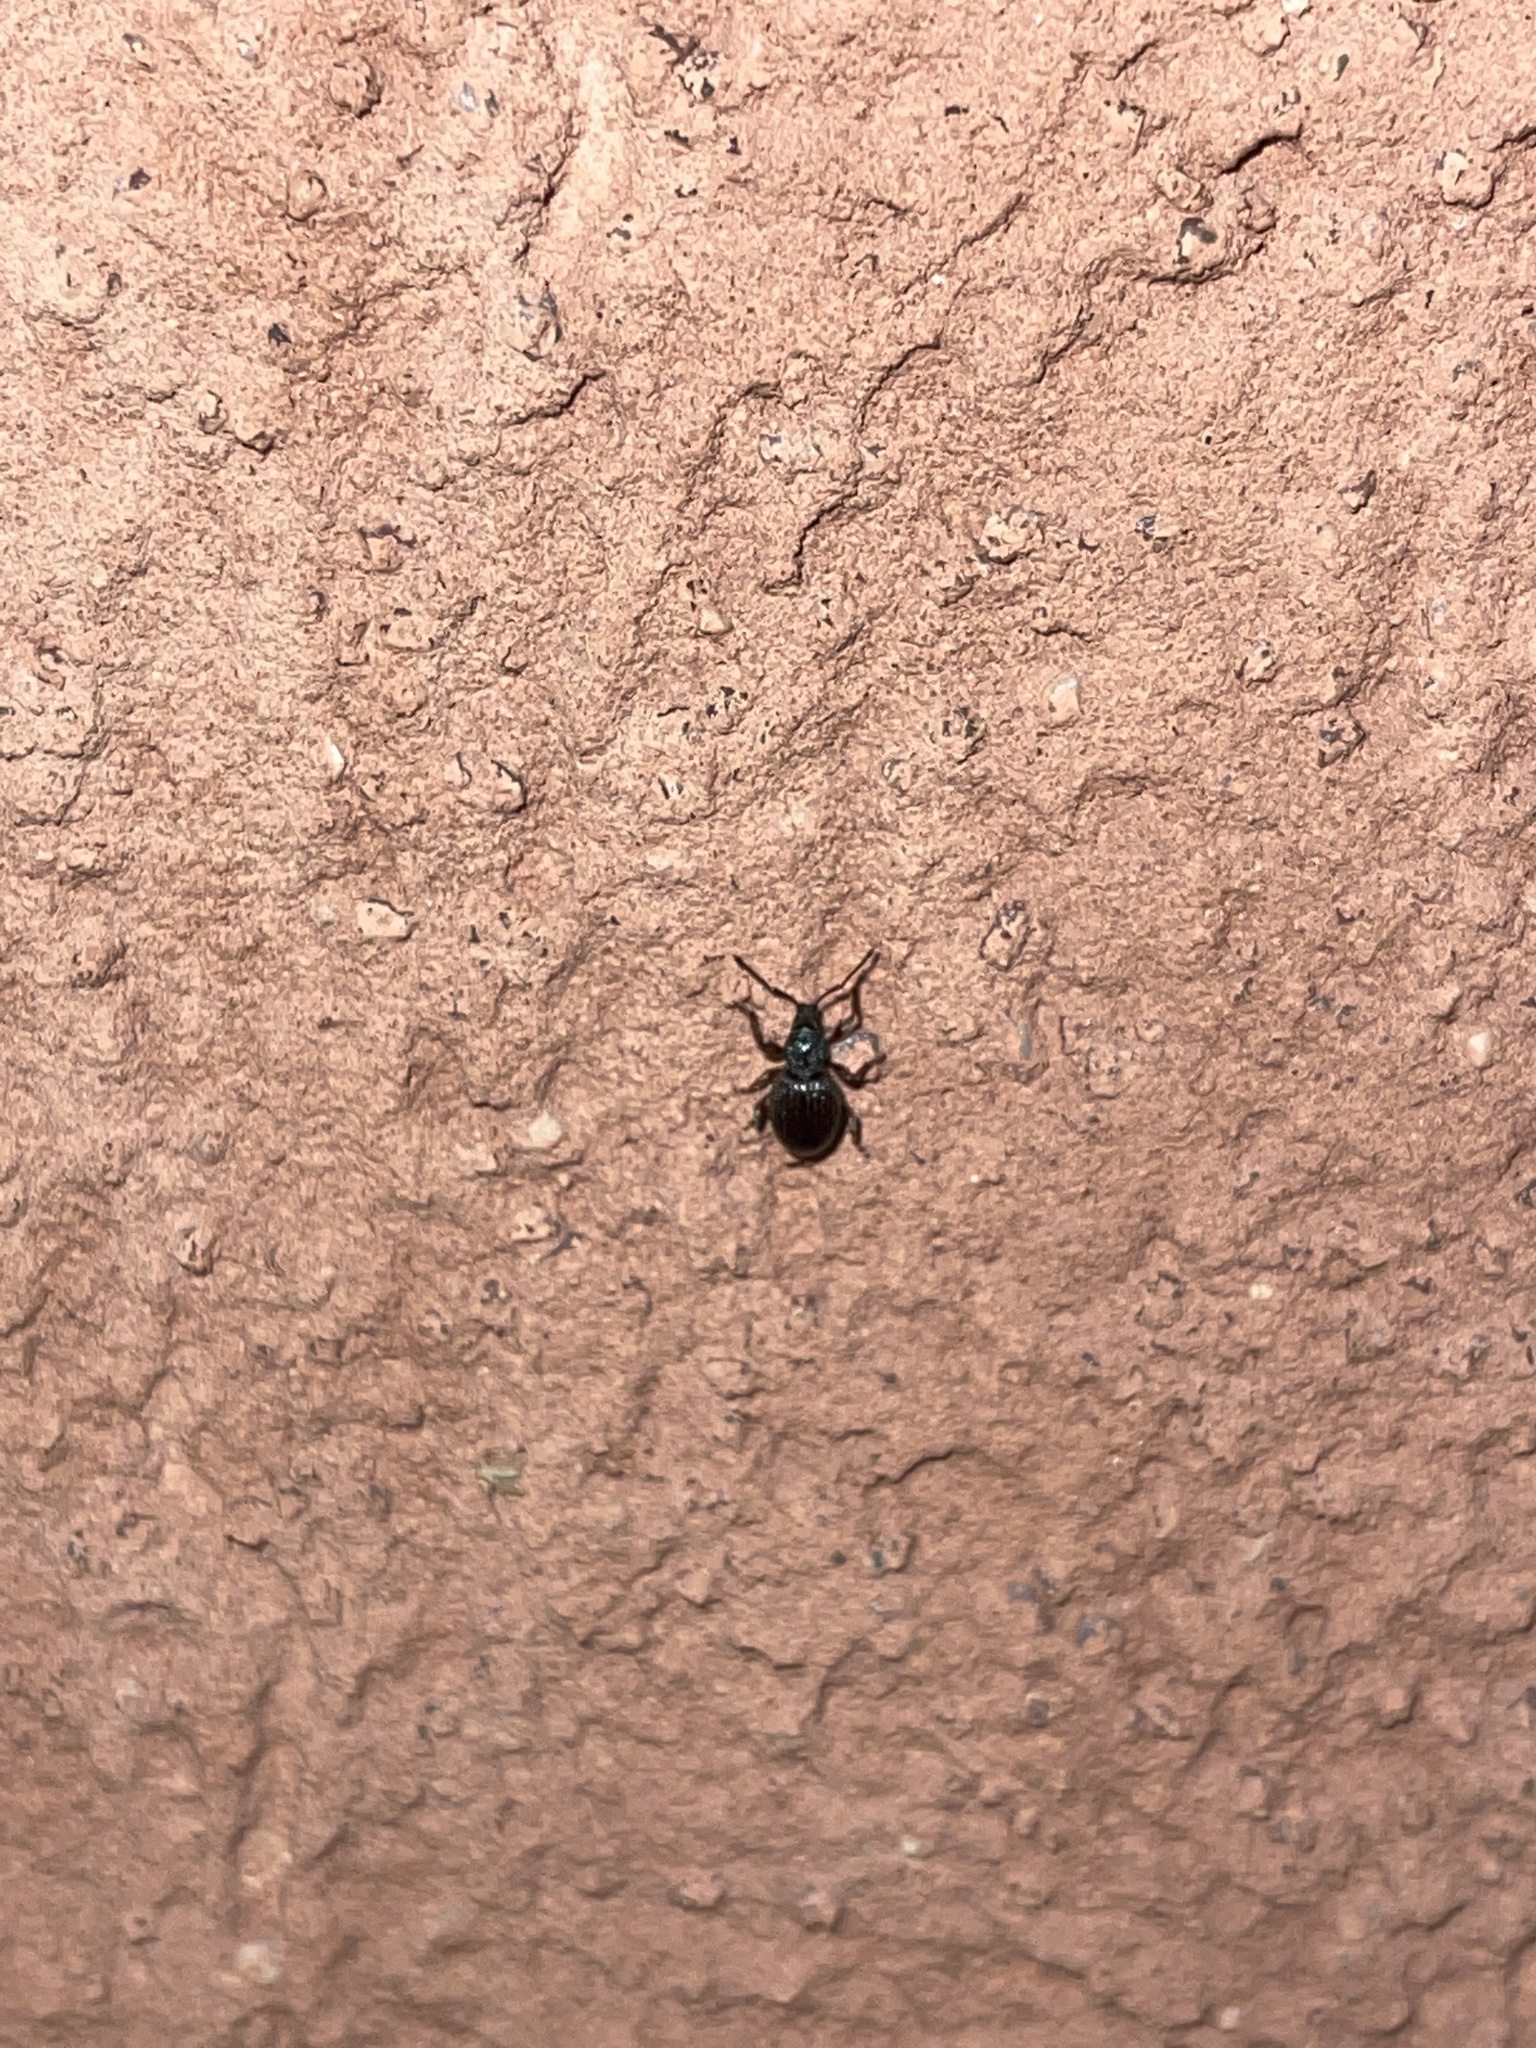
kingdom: Animalia
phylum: Arthropoda
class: Insecta
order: Coleoptera
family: Curculionidae
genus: Otiorhynchus
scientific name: Otiorhynchus ovatus
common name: Strawberry root weevil
